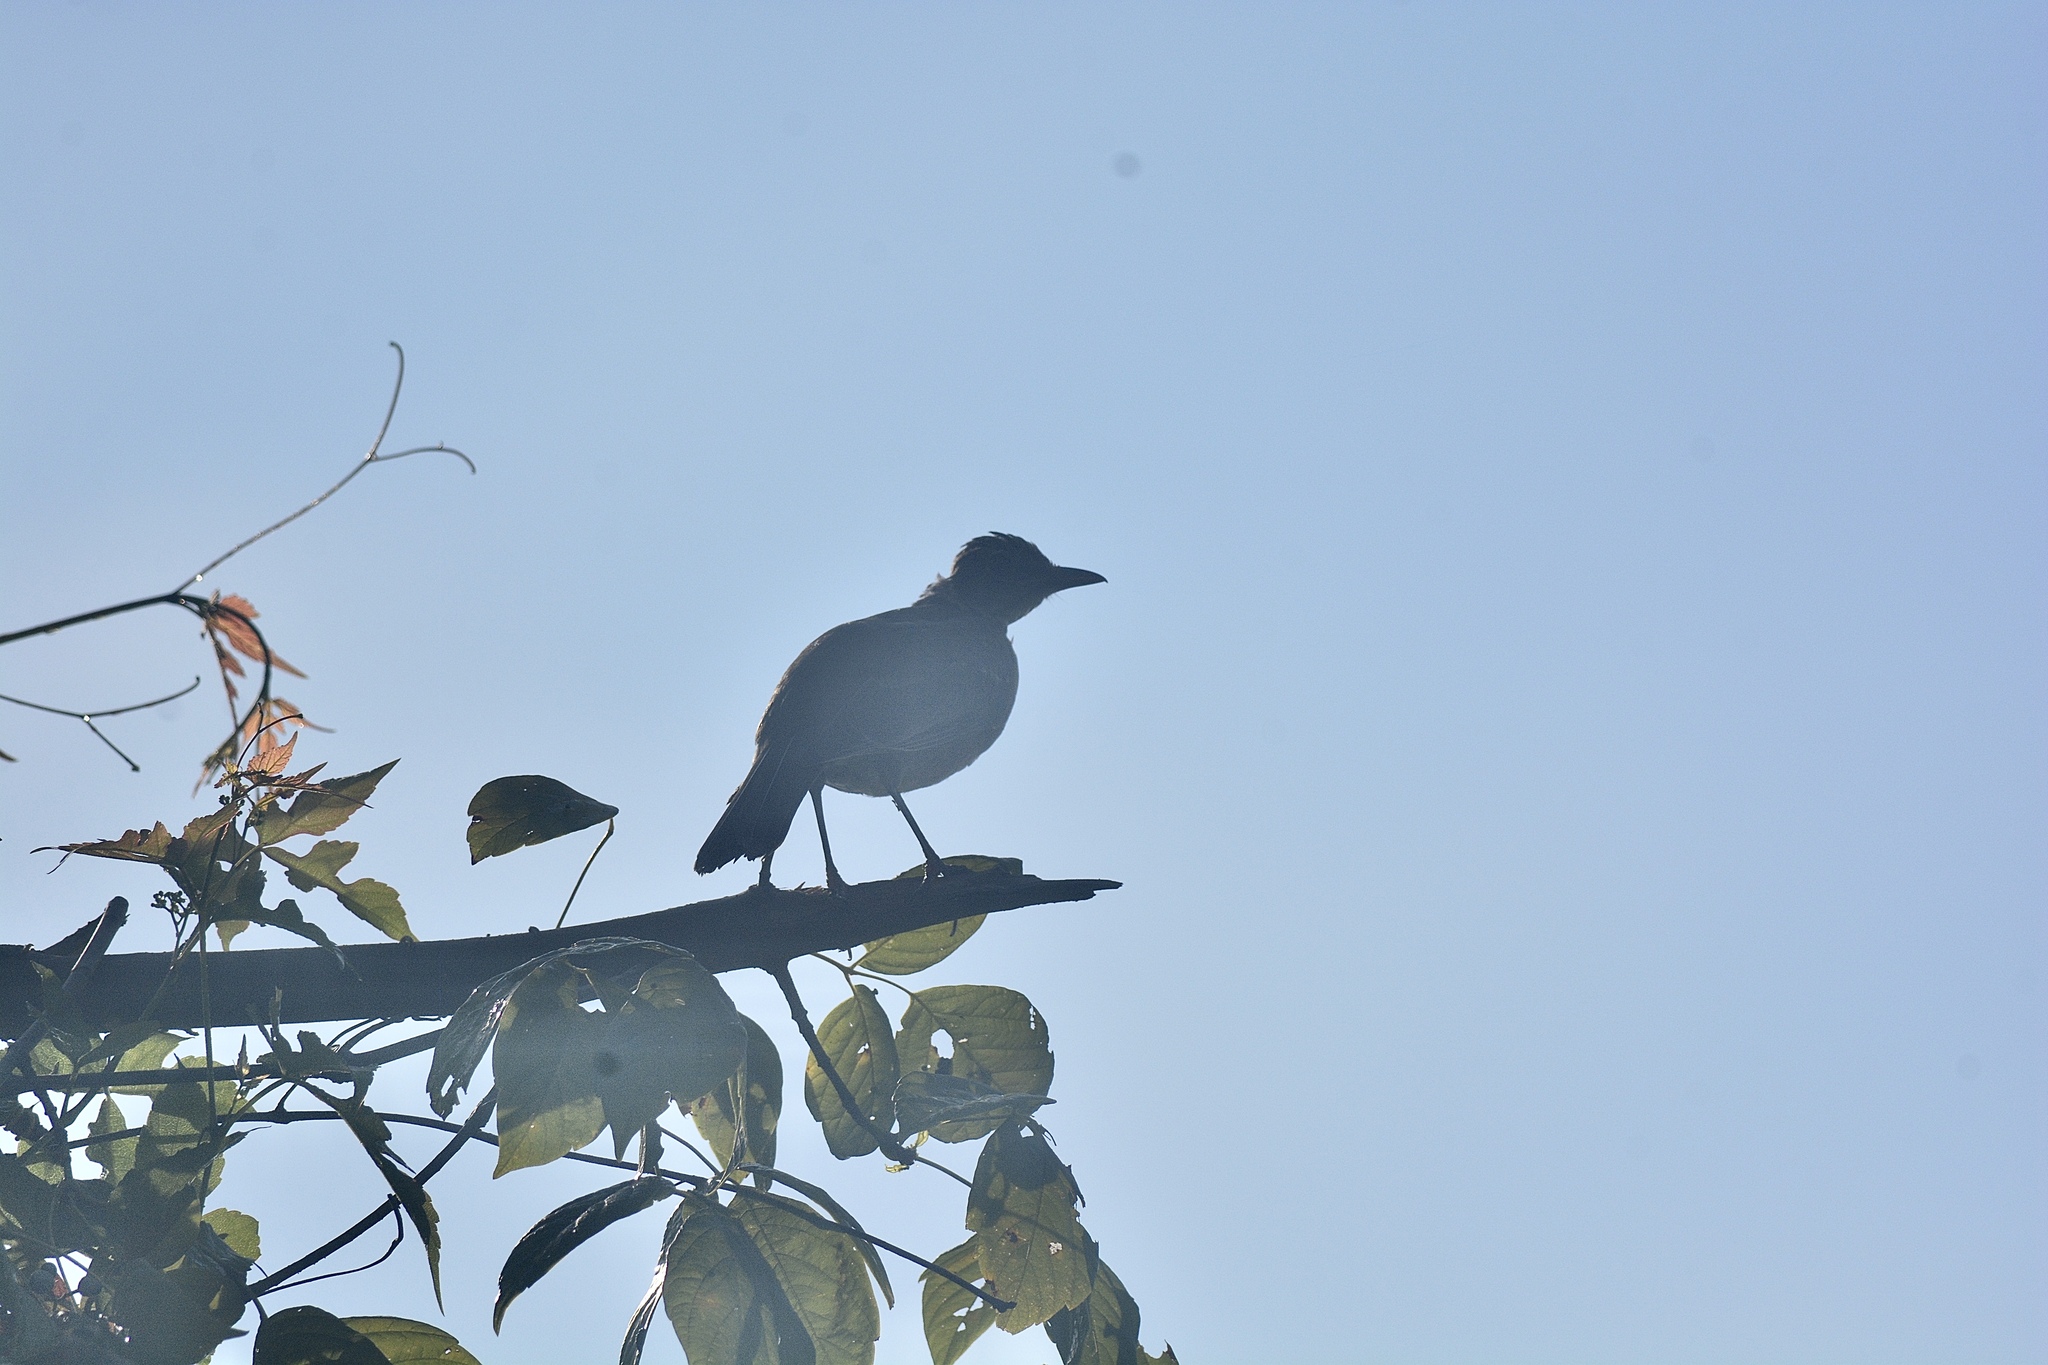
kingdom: Animalia
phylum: Chordata
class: Aves
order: Passeriformes
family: Turdidae
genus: Turdus
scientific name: Turdus migratorius
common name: American robin
